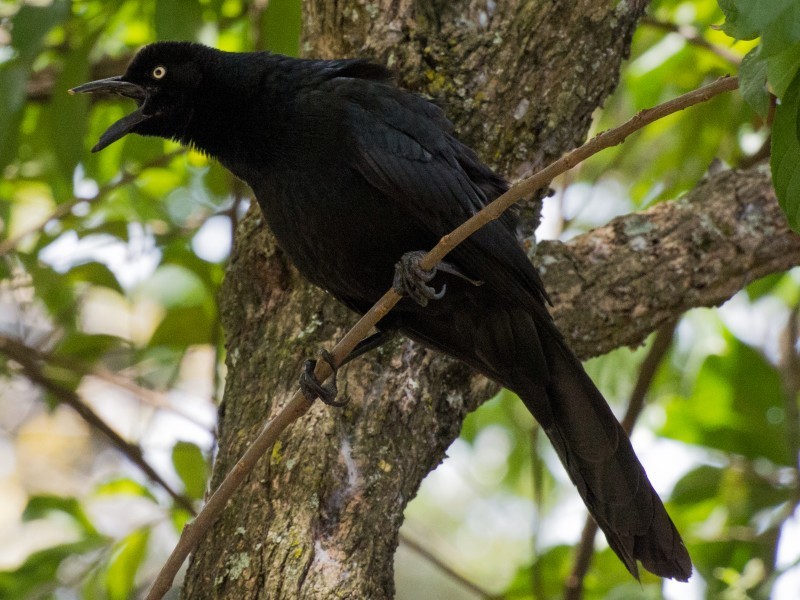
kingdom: Animalia
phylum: Chordata
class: Aves
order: Passeriformes
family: Icteridae
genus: Quiscalus
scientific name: Quiscalus mexicanus
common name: Great-tailed grackle
